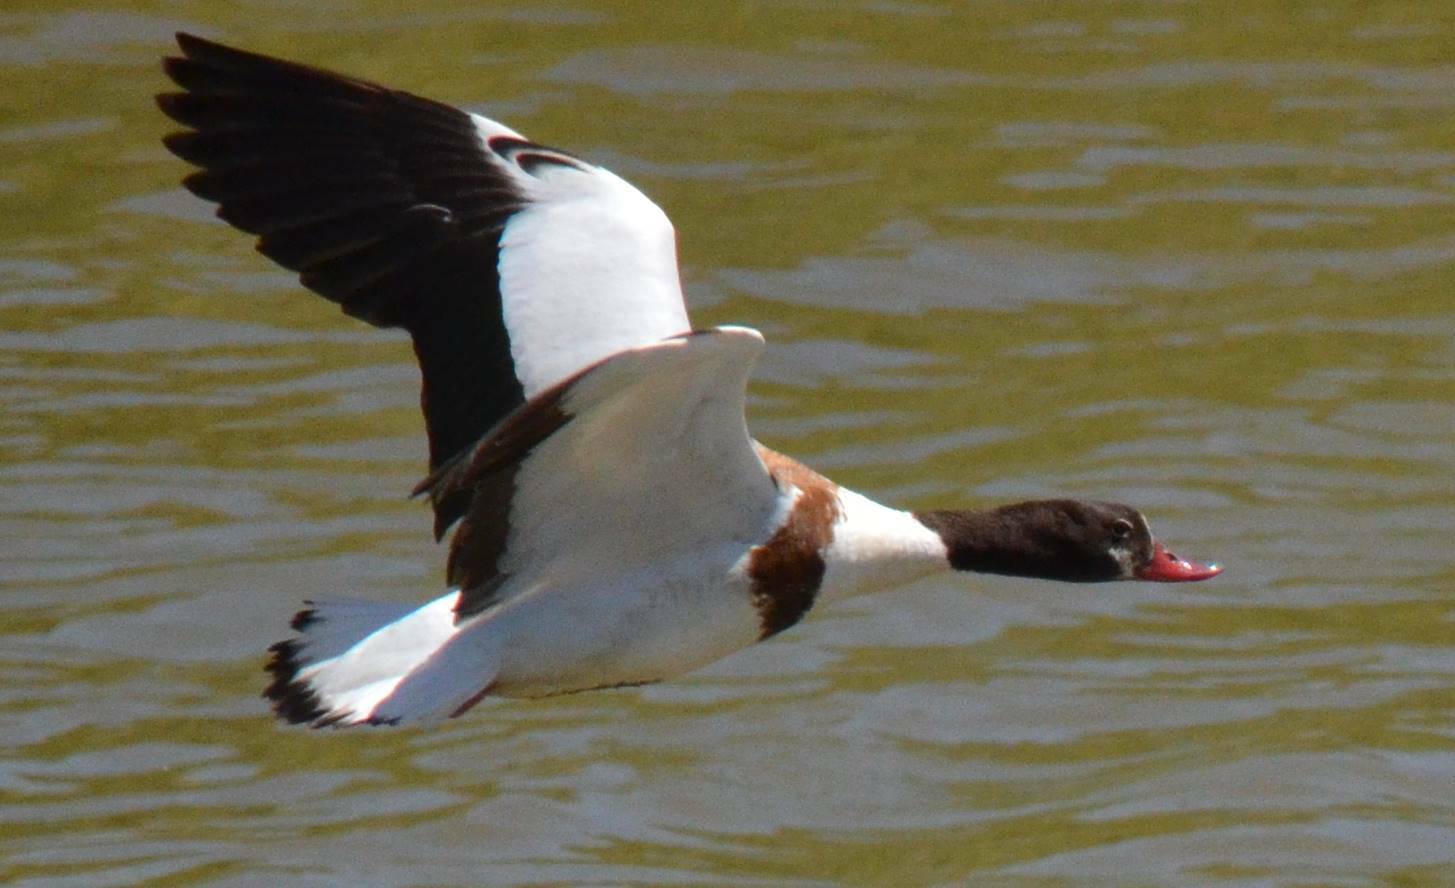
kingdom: Animalia
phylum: Chordata
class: Aves
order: Anseriformes
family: Anatidae
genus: Tadorna
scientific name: Tadorna tadorna
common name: Common shelduck
